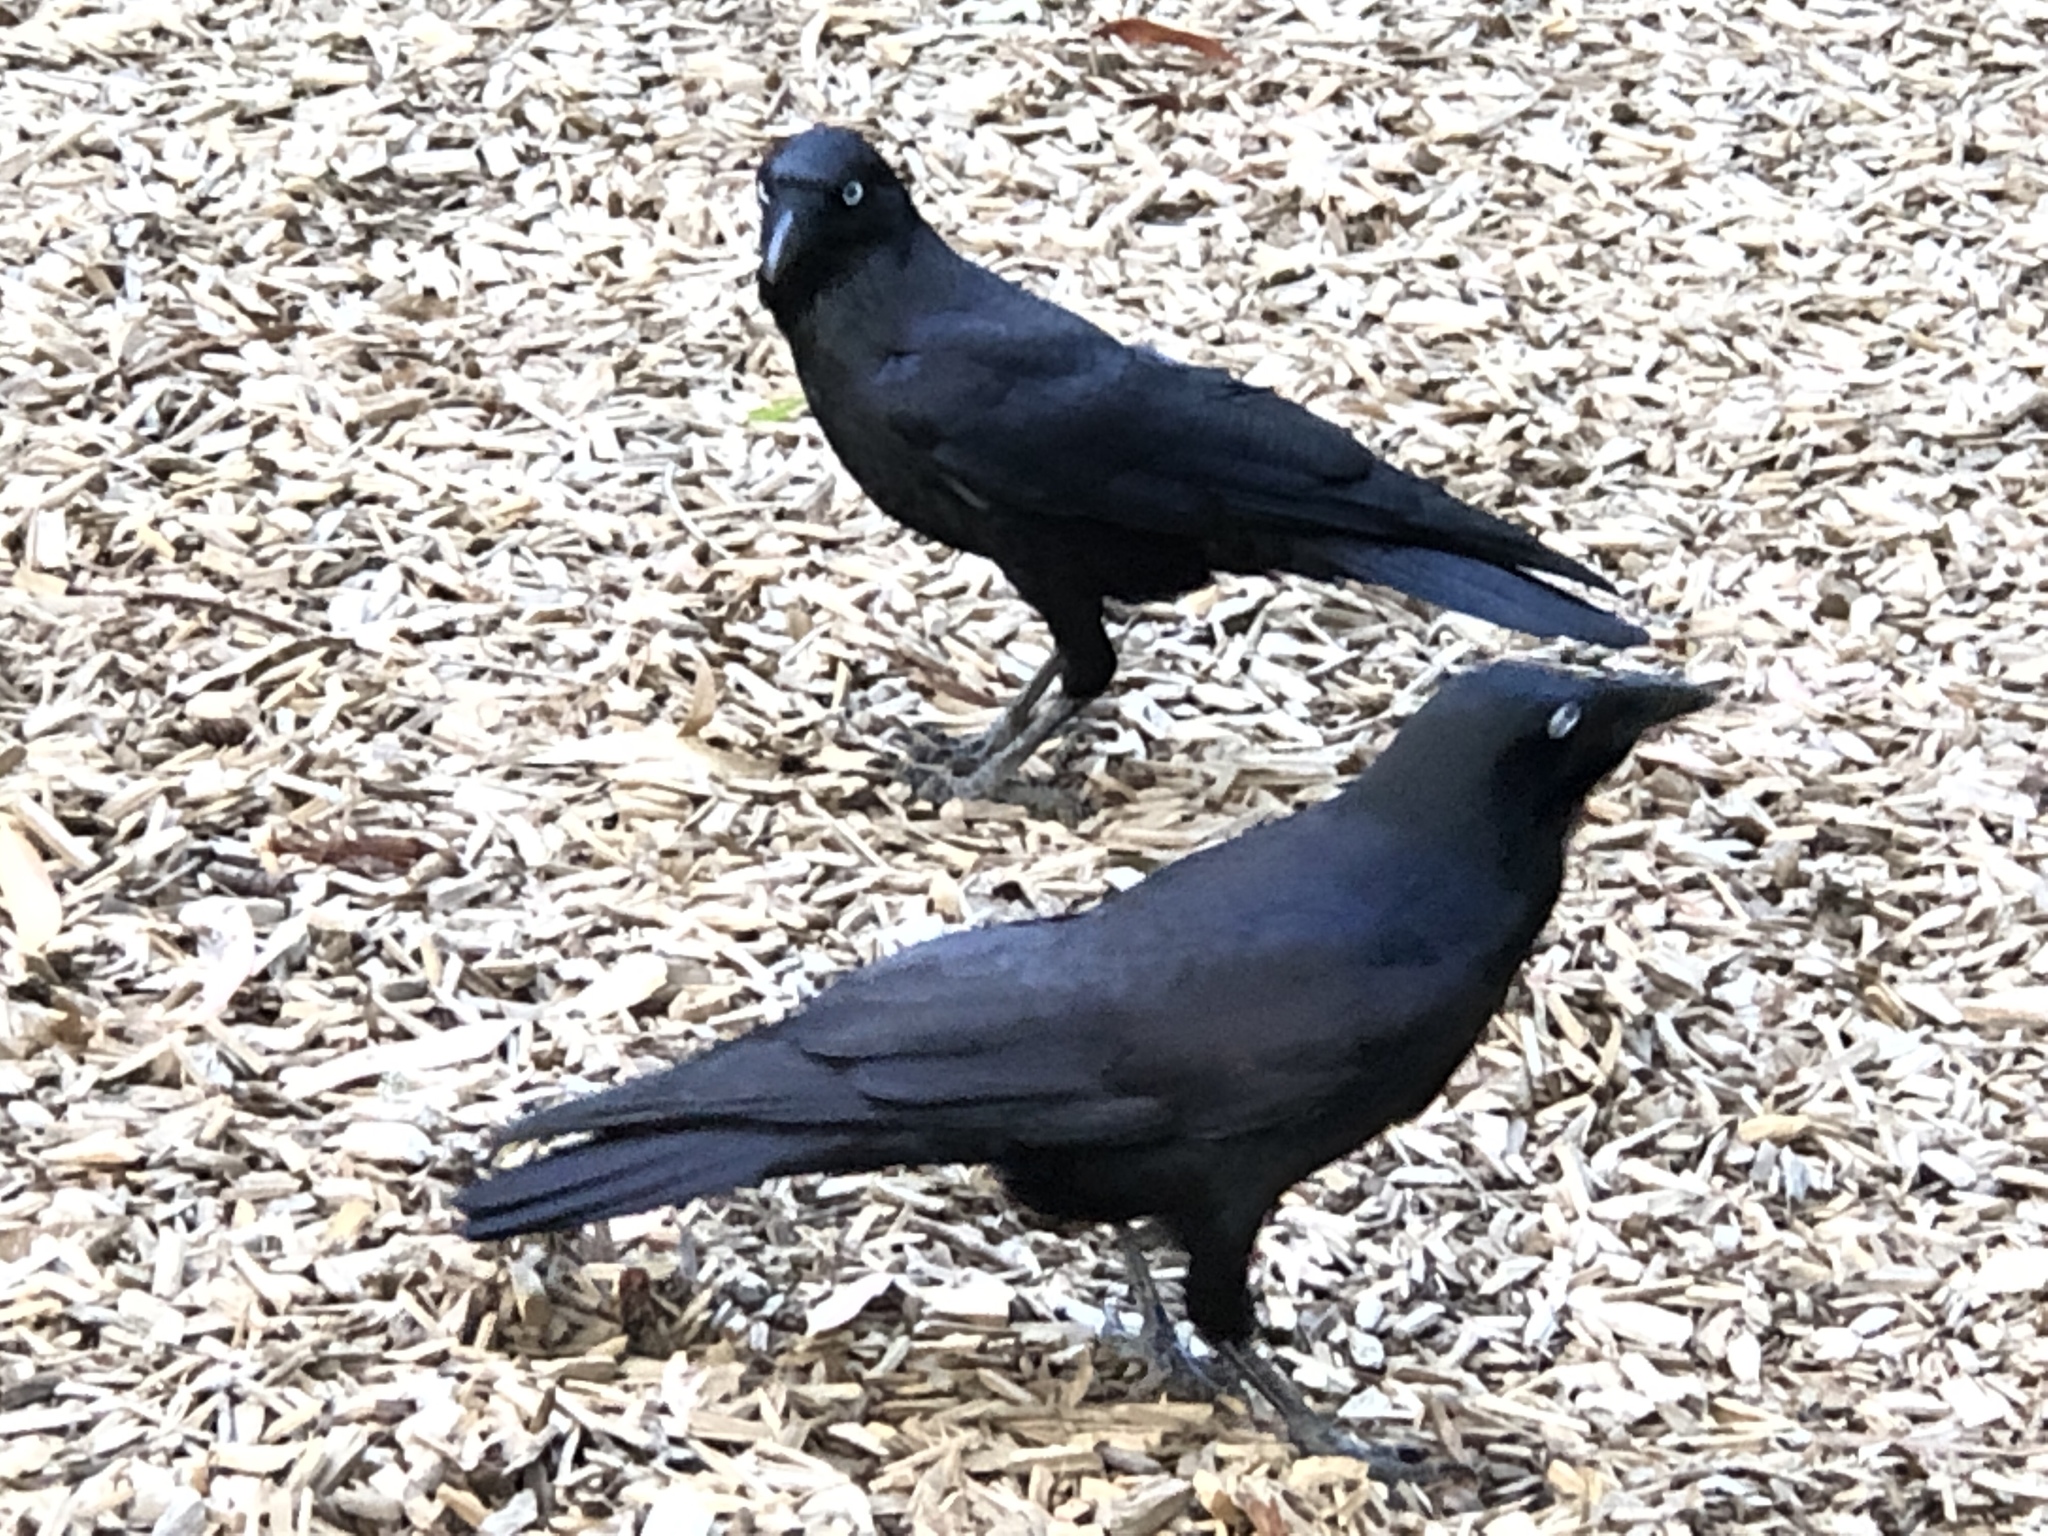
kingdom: Animalia
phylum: Chordata
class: Aves
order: Passeriformes
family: Corvidae
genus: Corvus
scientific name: Corvus mellori
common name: Little raven
